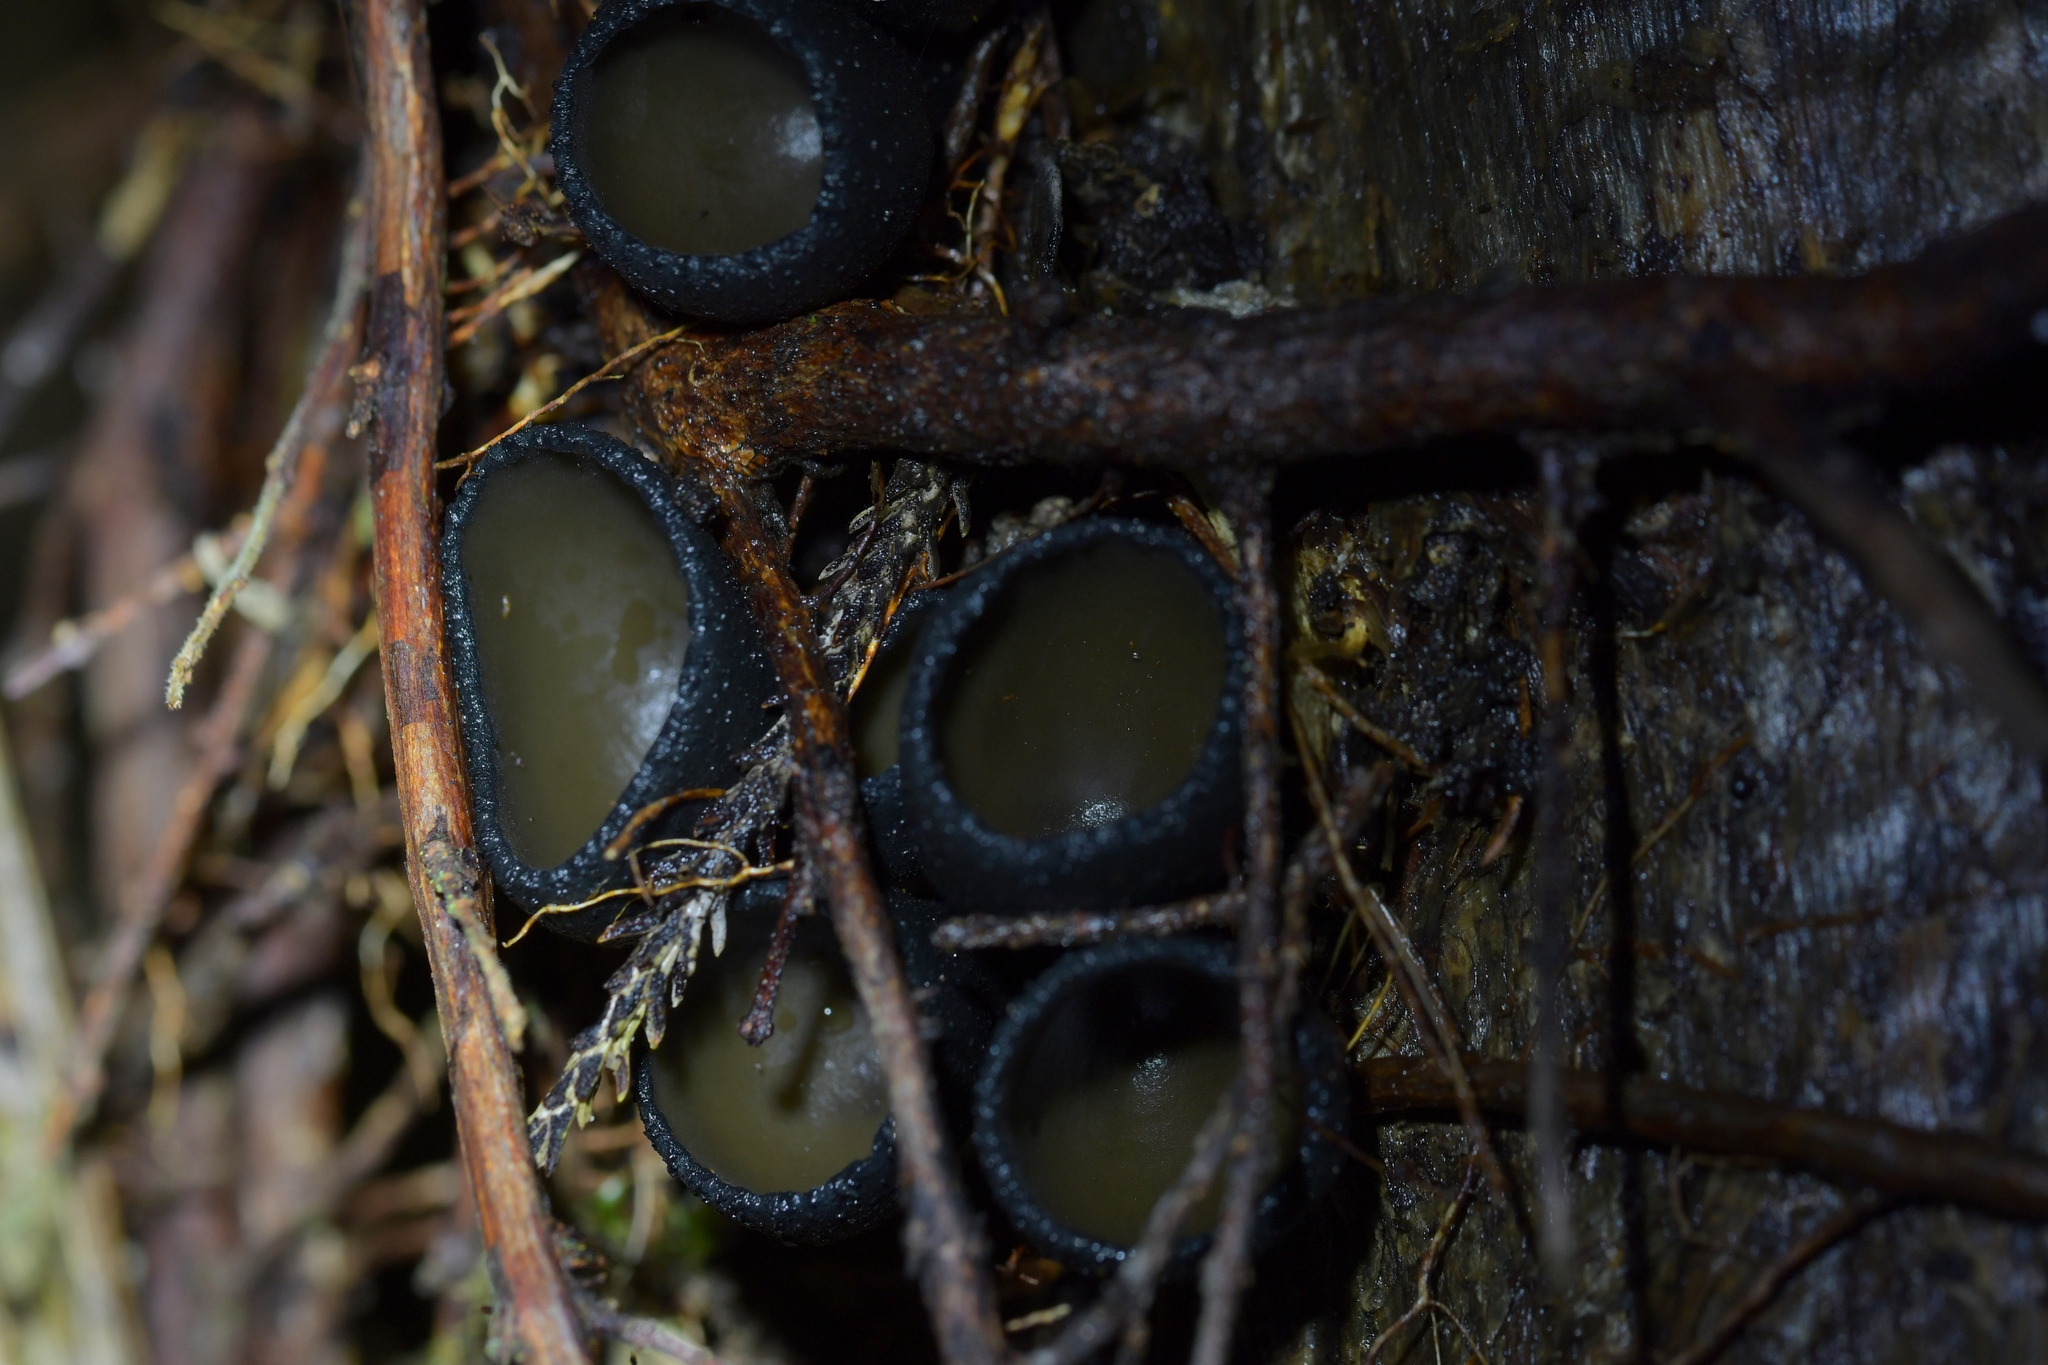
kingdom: Fungi
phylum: Ascomycota
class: Pezizomycetes
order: Pezizales
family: Sarcosomataceae
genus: Plectania
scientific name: Plectania campylospora
